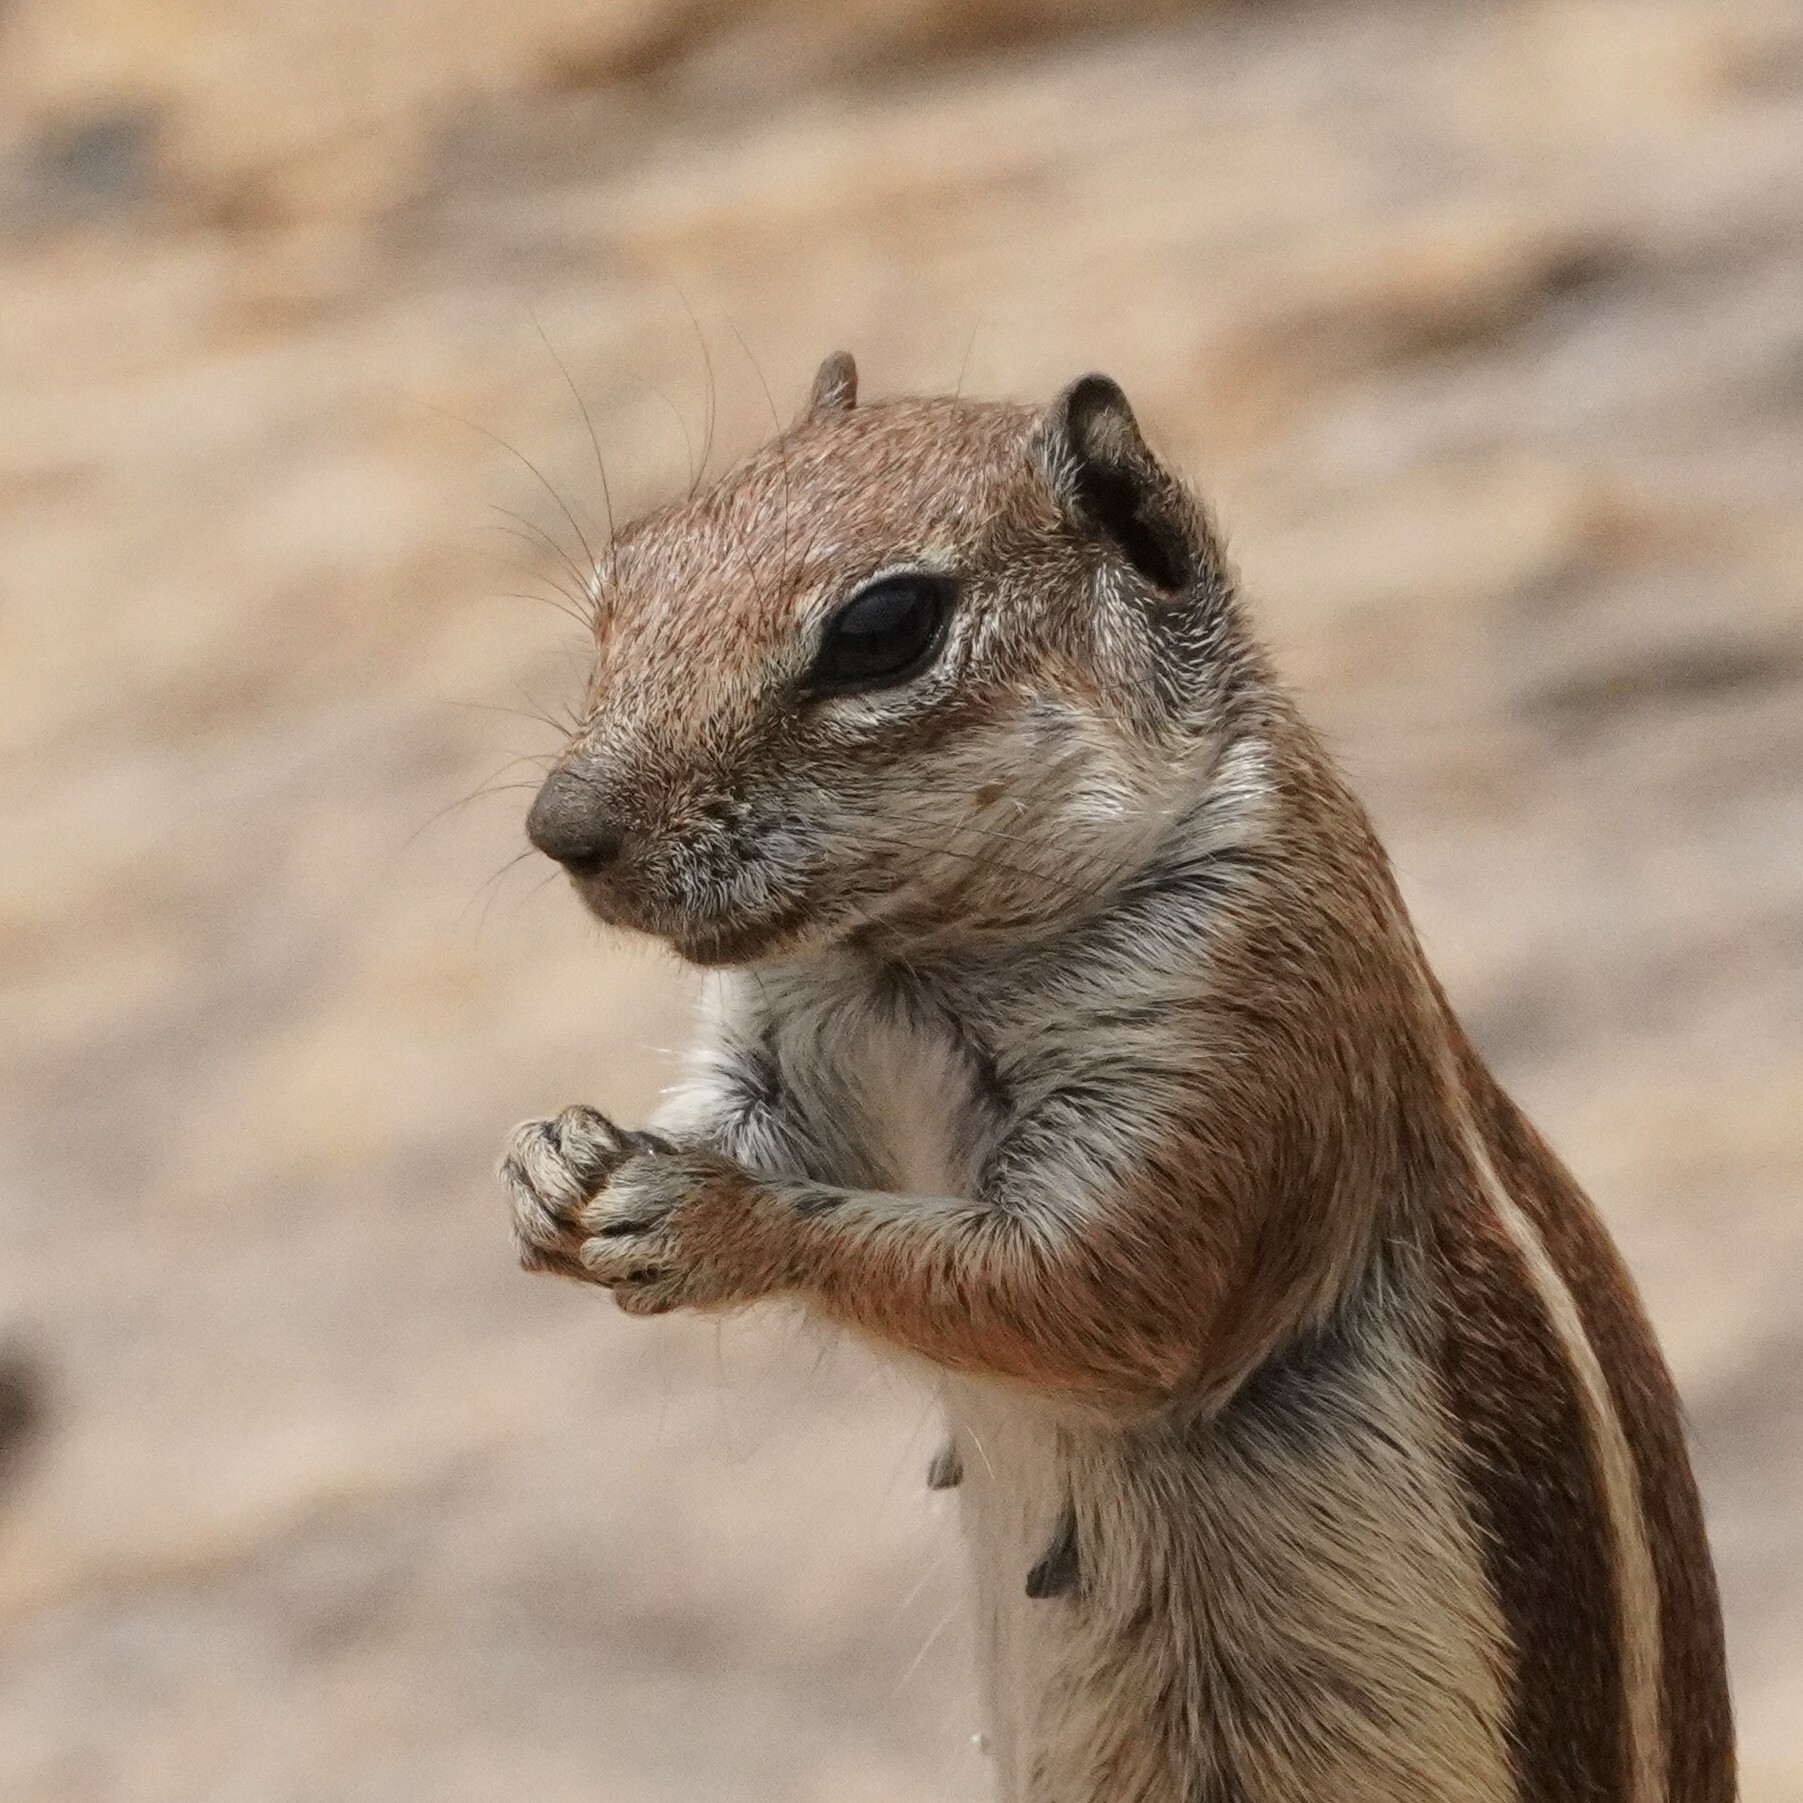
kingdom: Animalia
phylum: Chordata
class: Mammalia
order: Rodentia
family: Sciuridae
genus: Atlantoxerus
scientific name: Atlantoxerus getulus
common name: Barbary ground squirrel
